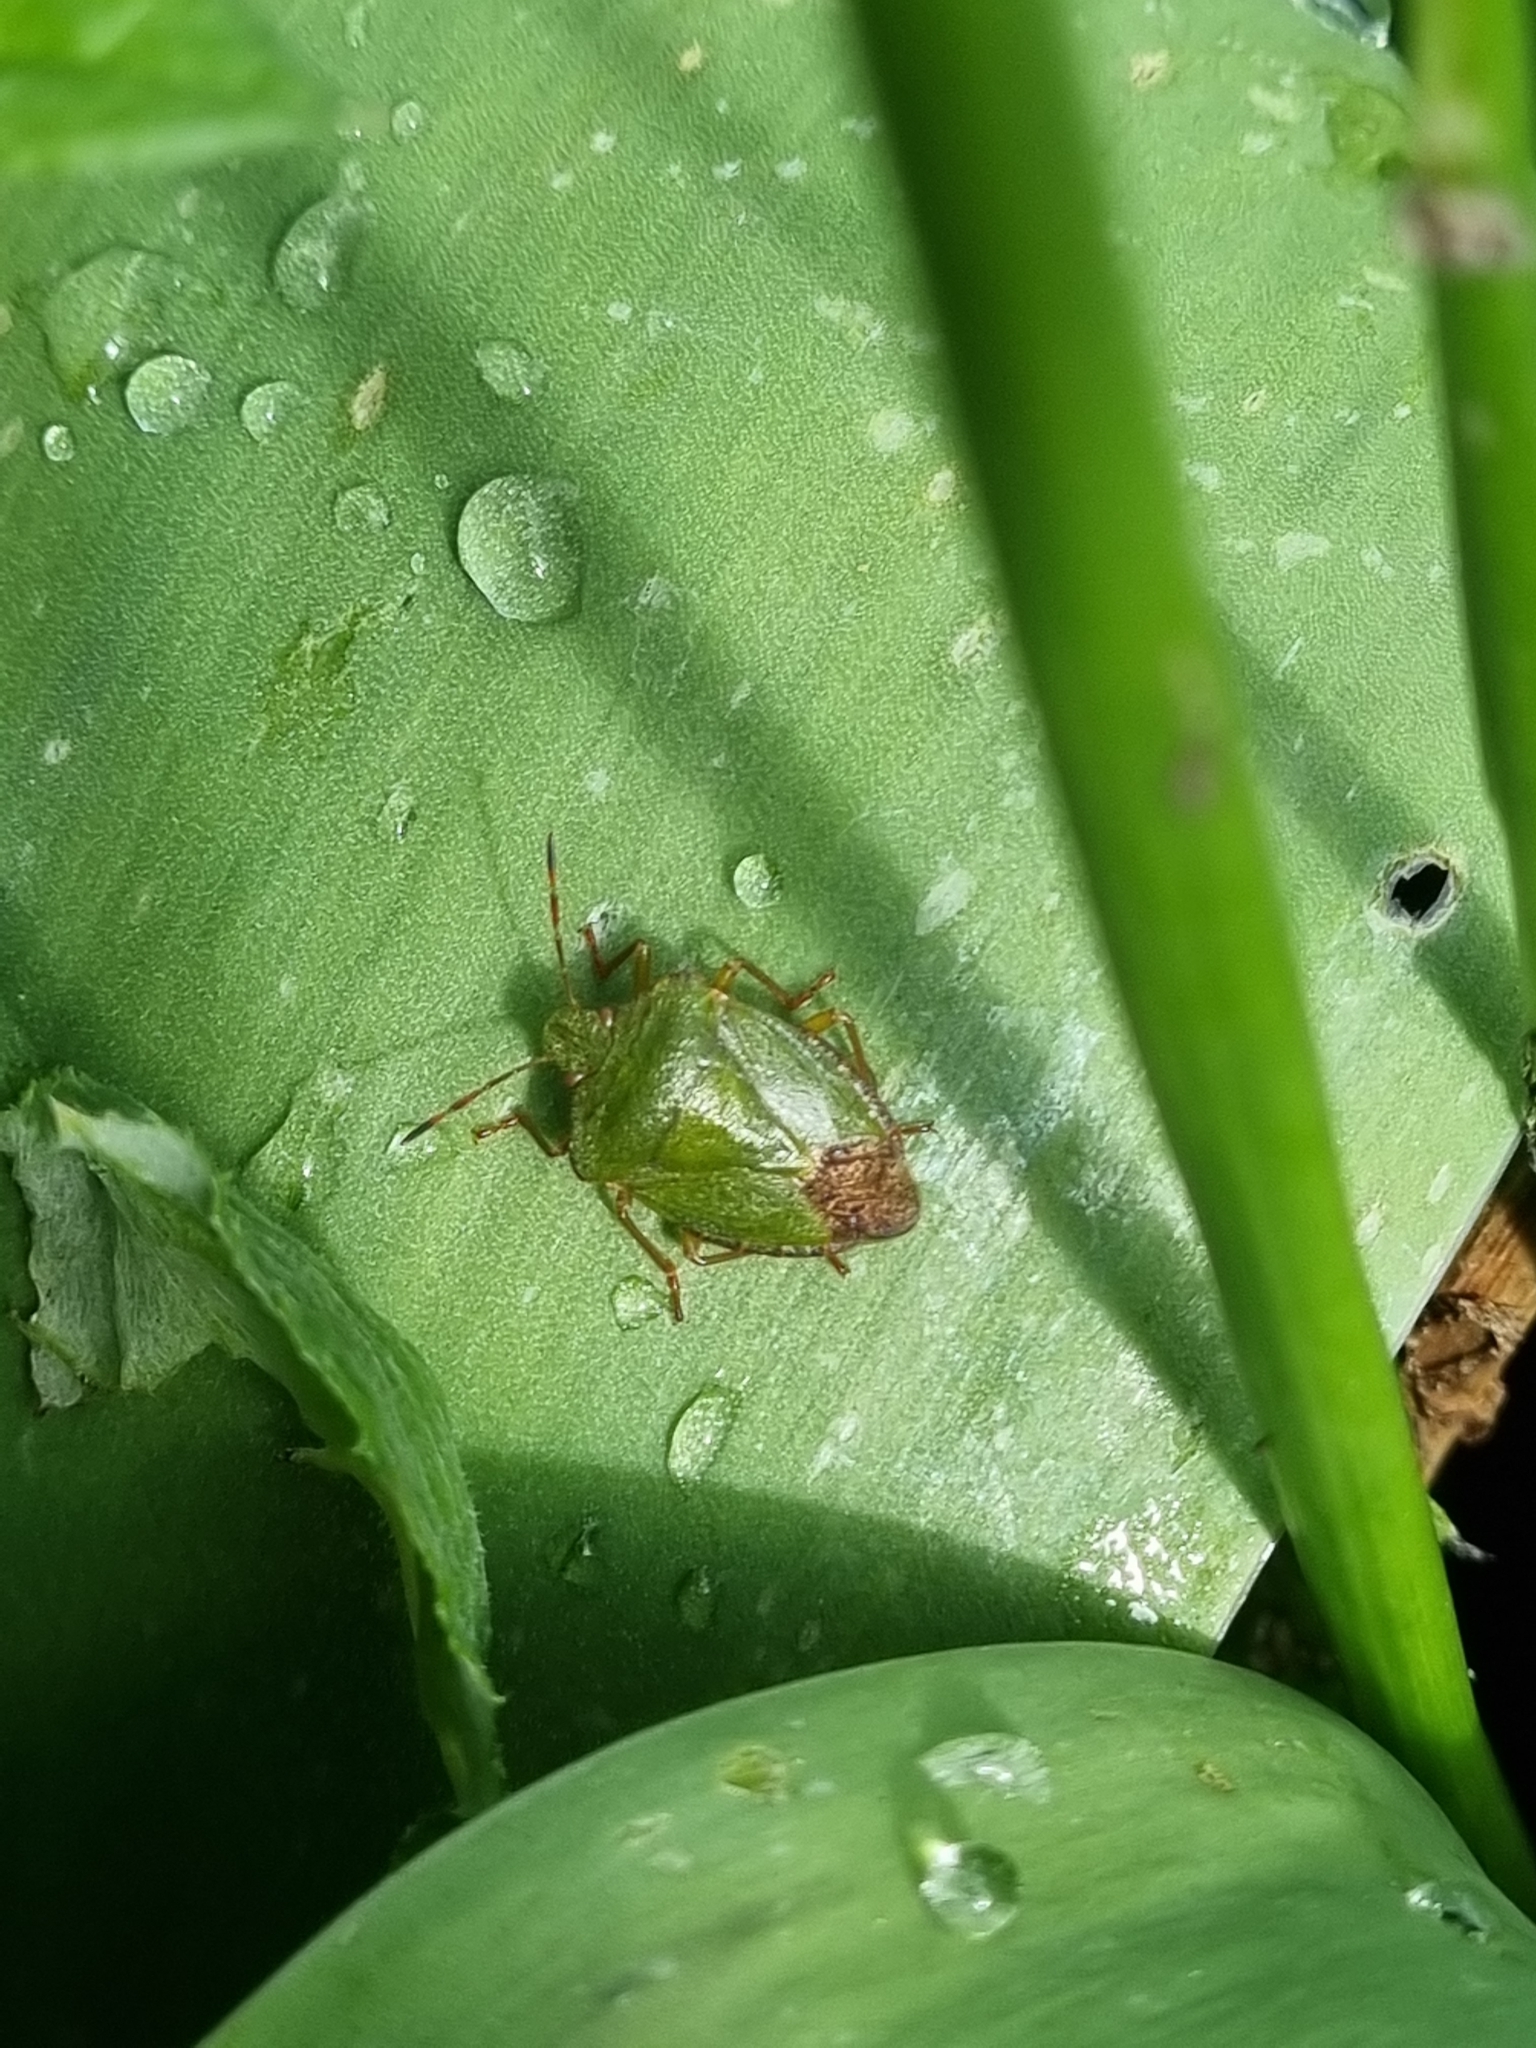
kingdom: Animalia
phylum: Arthropoda
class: Insecta
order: Hemiptera
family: Pentatomidae
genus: Palomena
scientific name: Palomena prasina
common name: Green shieldbug
